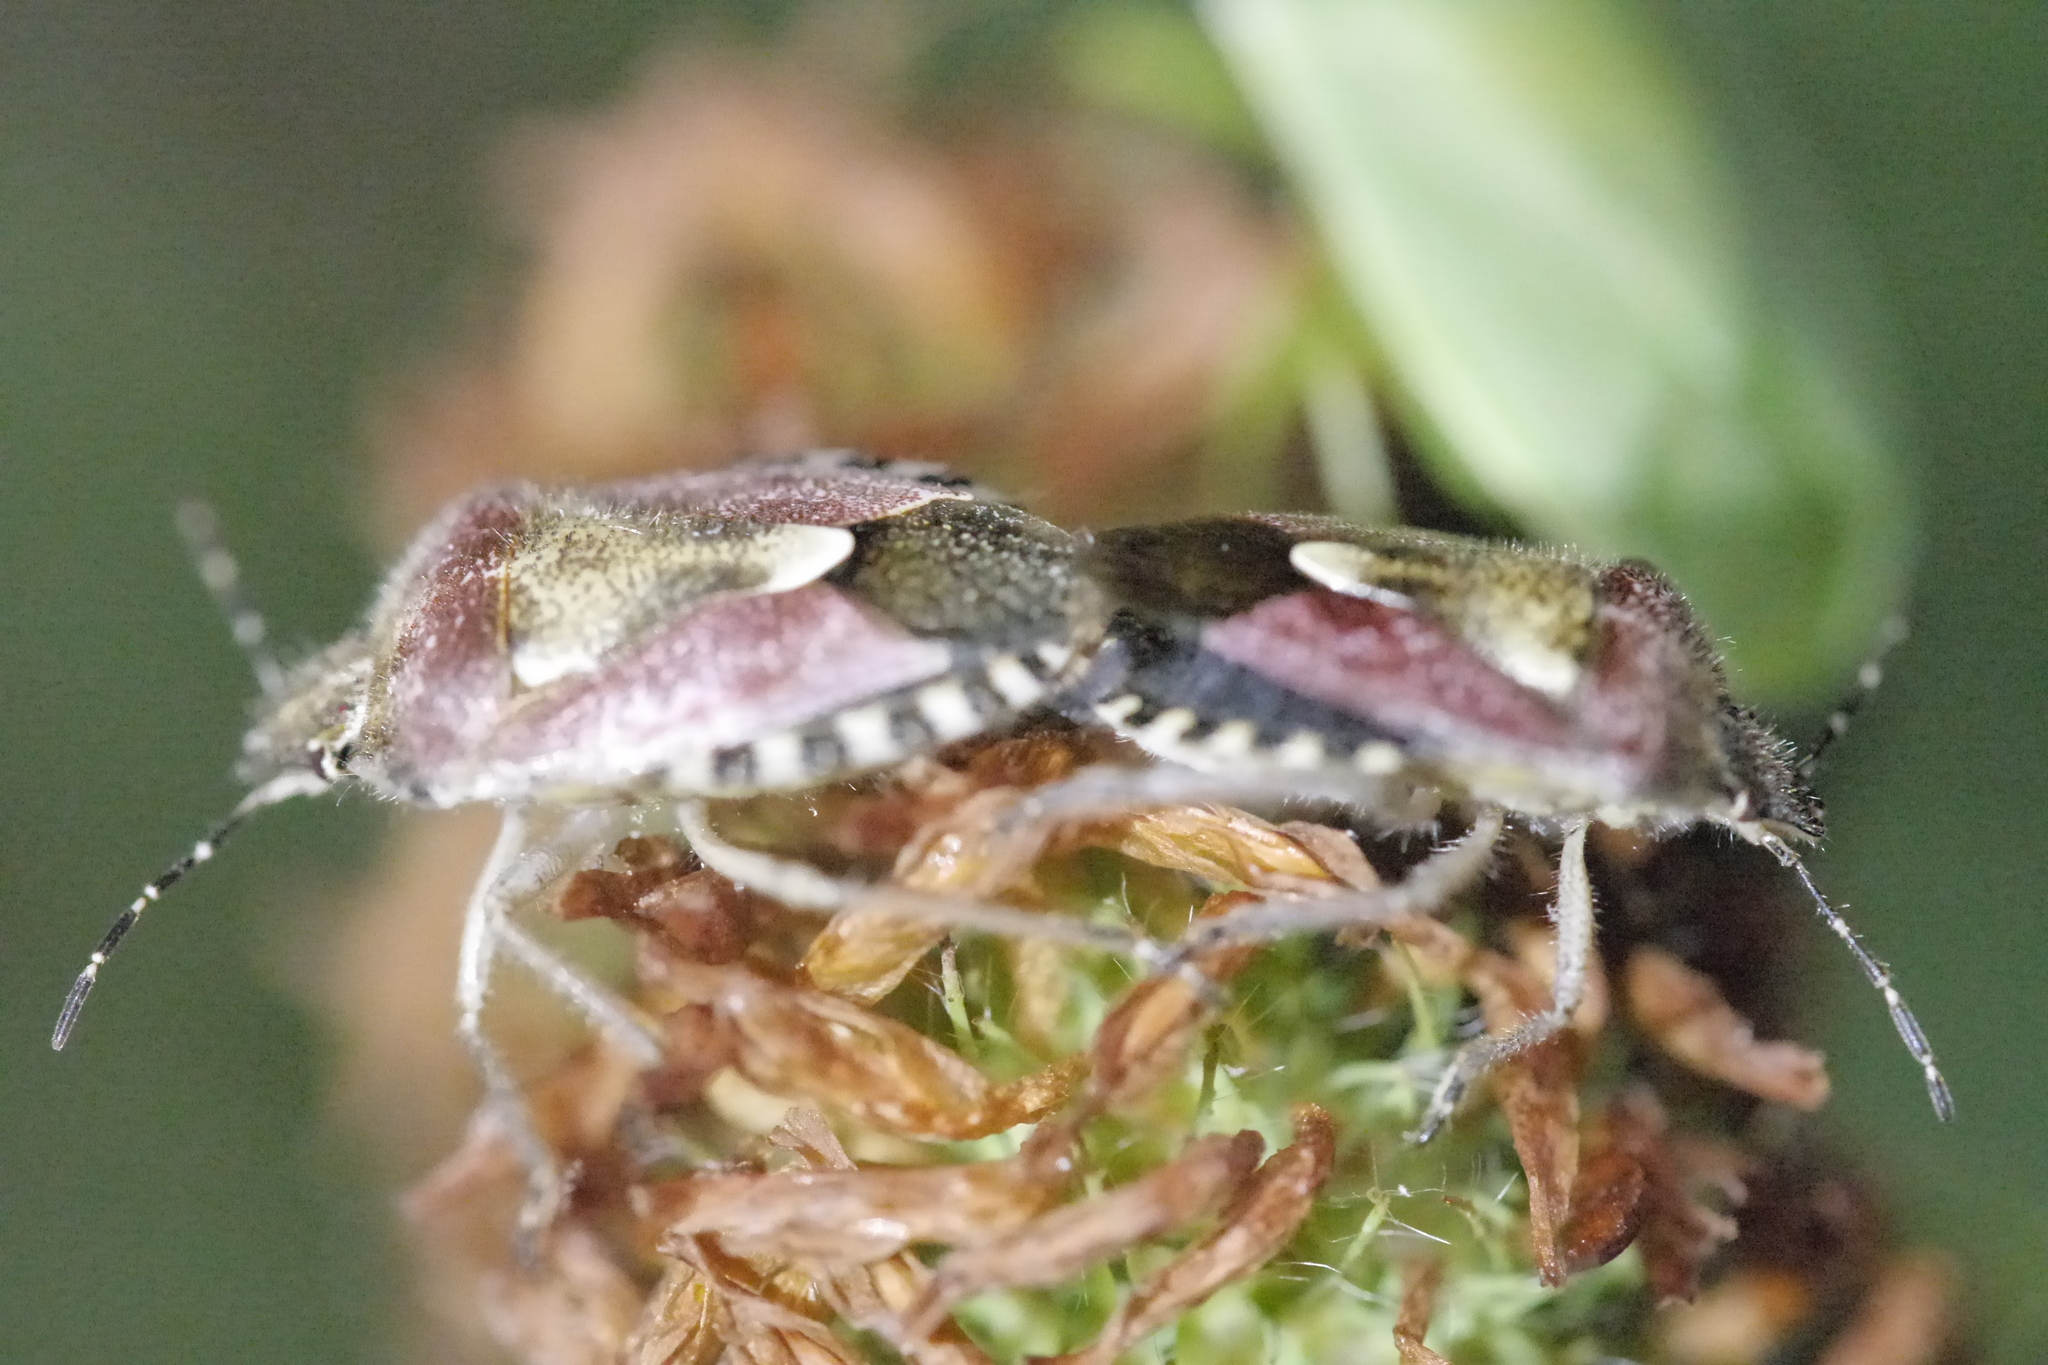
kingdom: Animalia
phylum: Arthropoda
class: Insecta
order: Hemiptera
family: Pentatomidae
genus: Dolycoris
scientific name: Dolycoris baccarum
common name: Sloe bug
